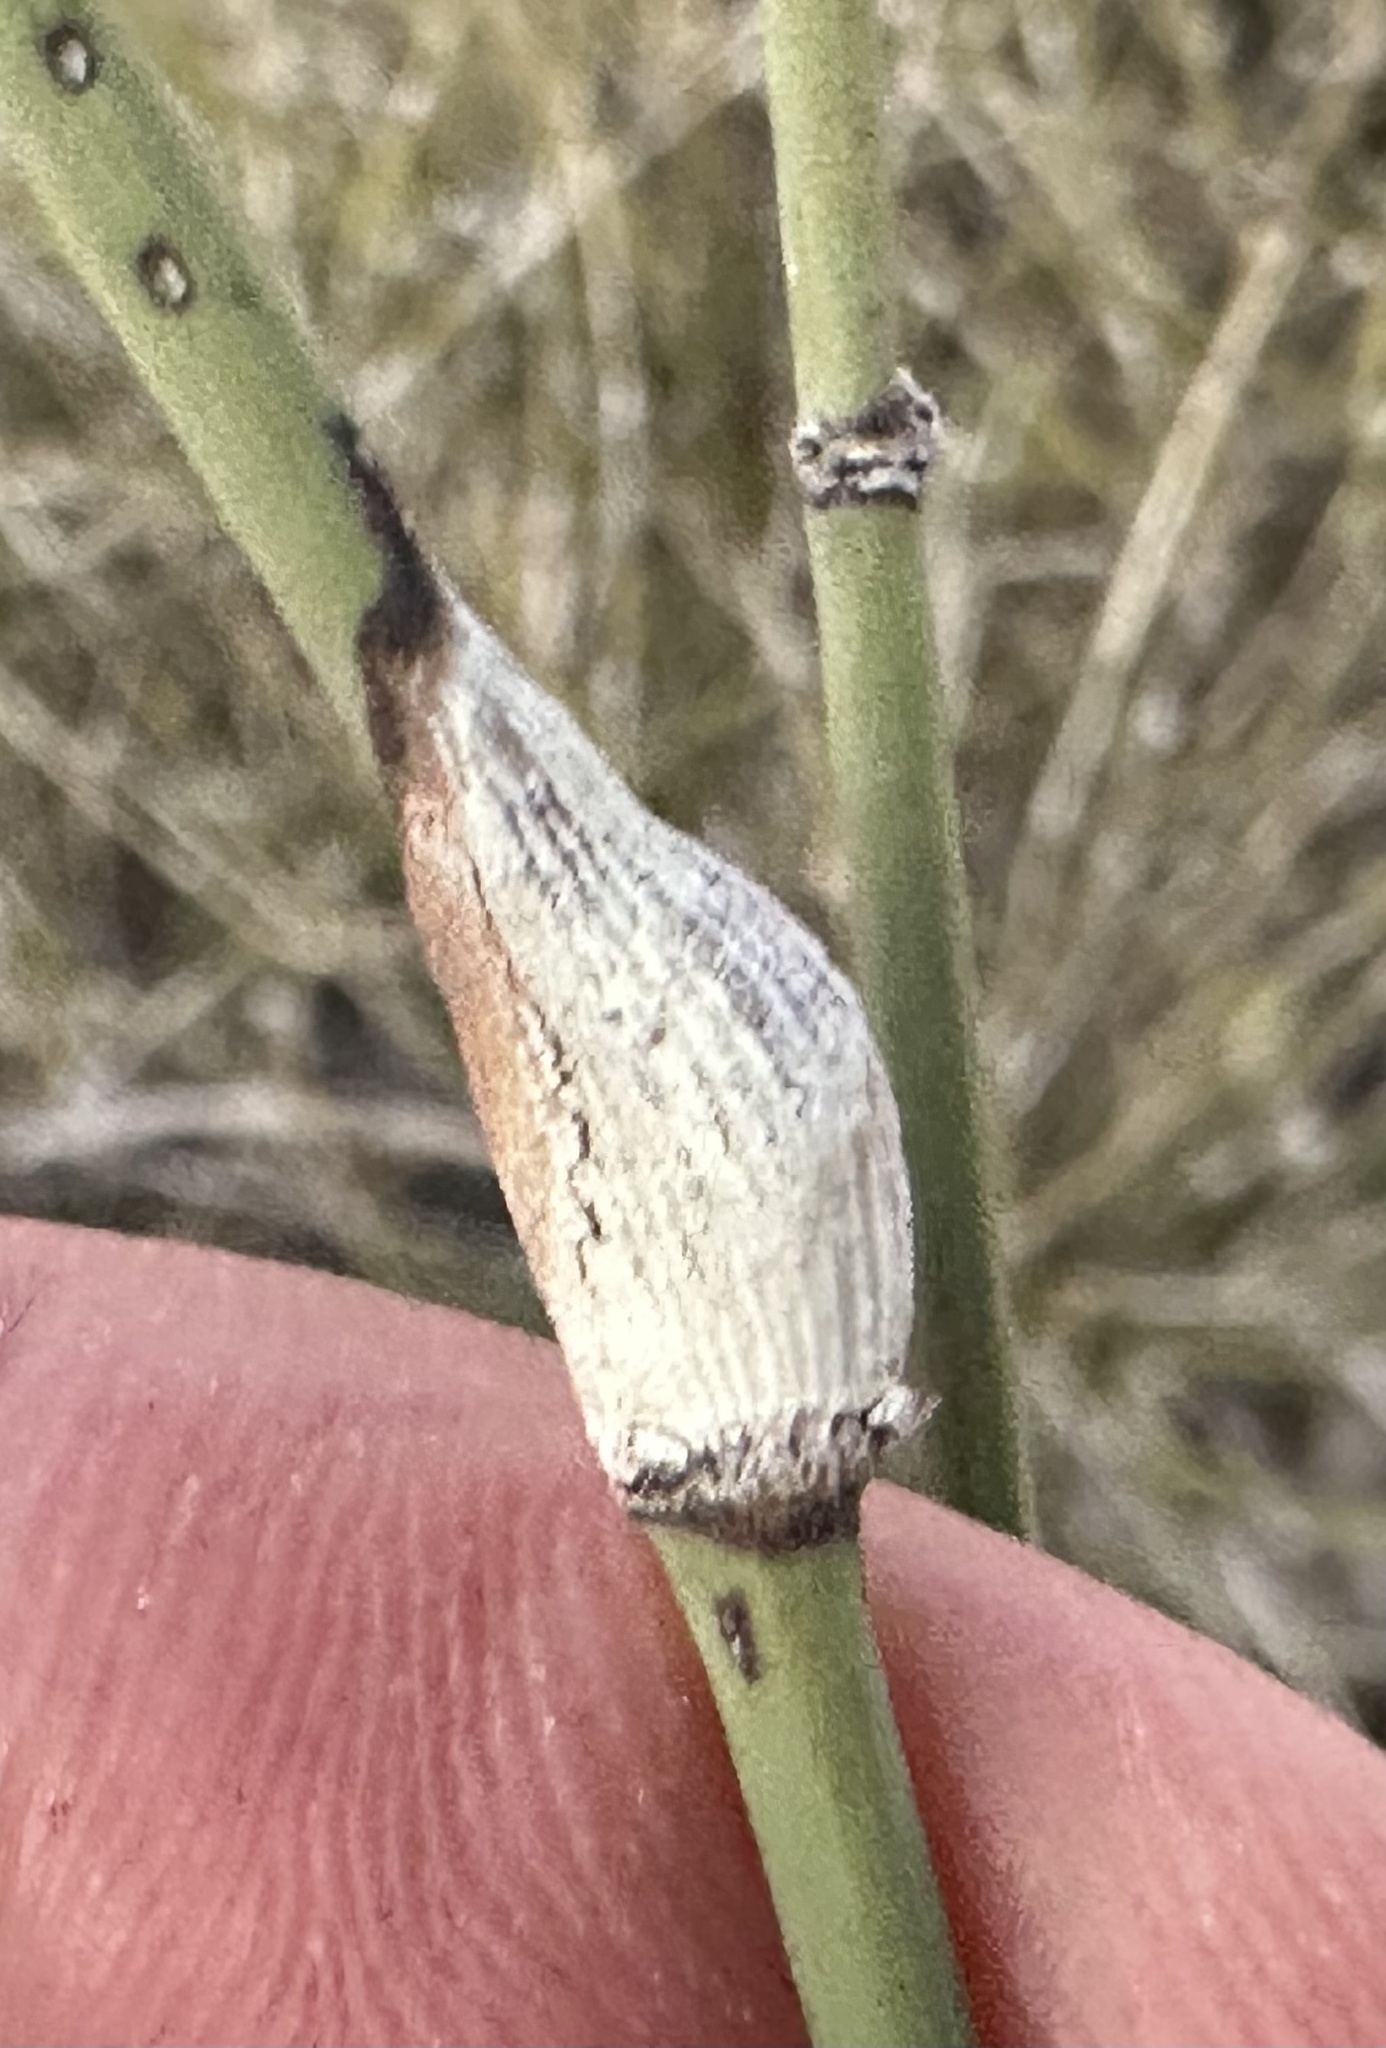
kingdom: Animalia
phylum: Arthropoda
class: Insecta
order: Diptera
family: Cecidomyiidae
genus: Lasioptera
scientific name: Lasioptera ephedrae
